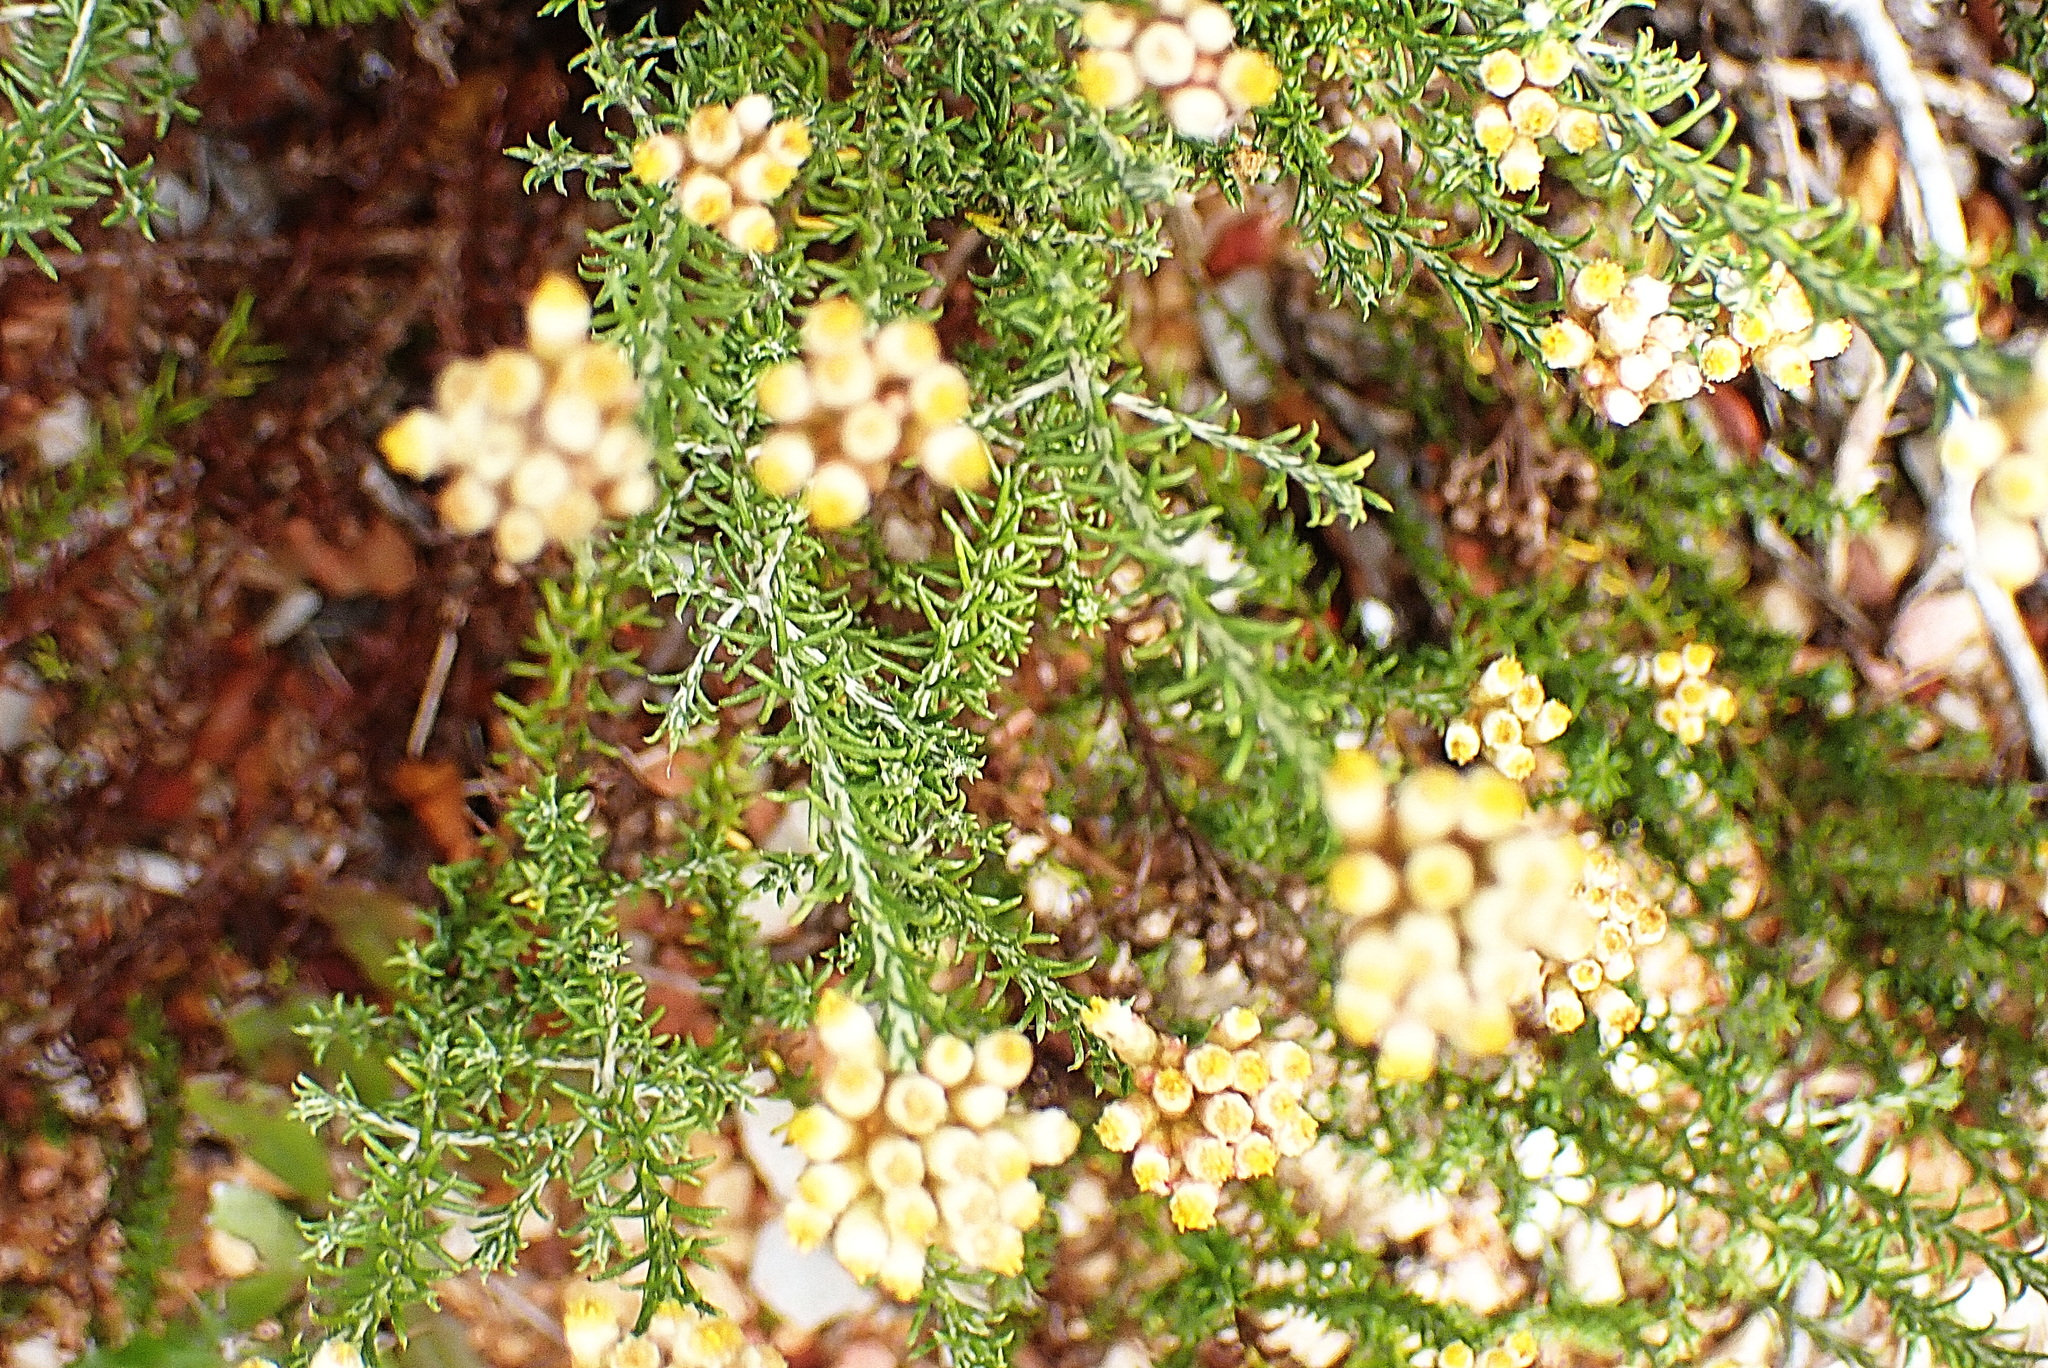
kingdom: Plantae
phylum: Tracheophyta
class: Magnoliopsida
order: Asterales
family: Asteraceae
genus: Helichrysum
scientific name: Helichrysum teretifolium
